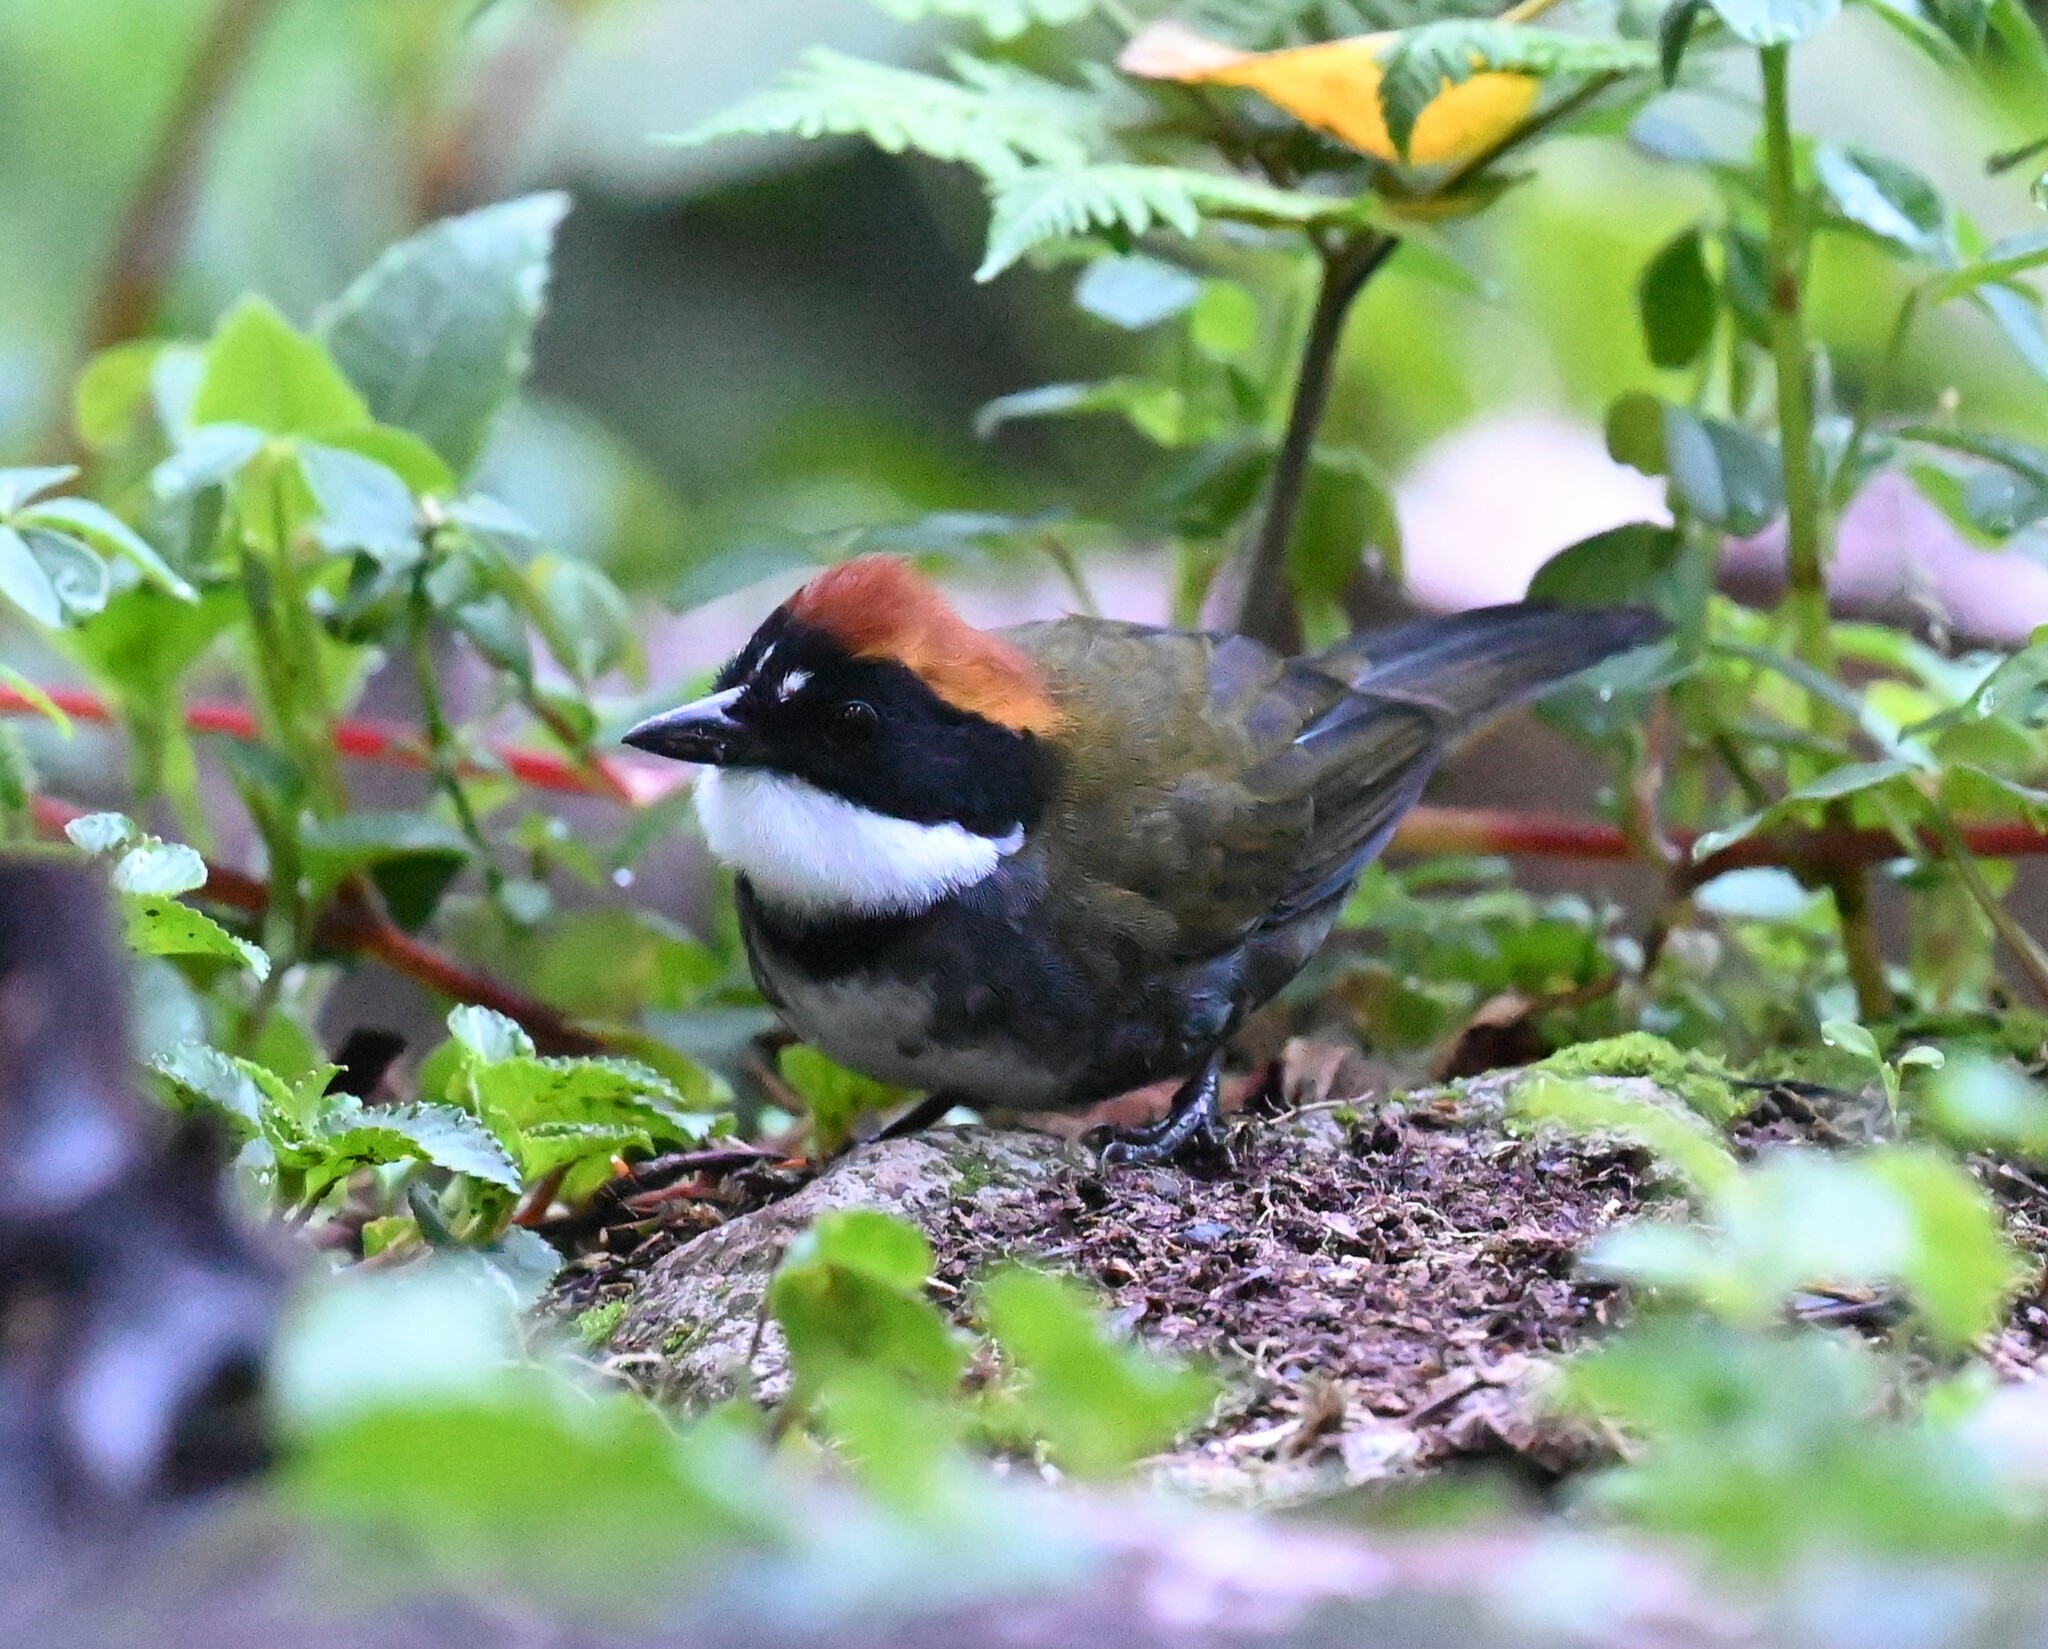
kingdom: Animalia
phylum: Chordata
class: Aves
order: Passeriformes
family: Passerellidae
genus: Arremon
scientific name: Arremon brunneinucha
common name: Chestnut-capped brushfinch
